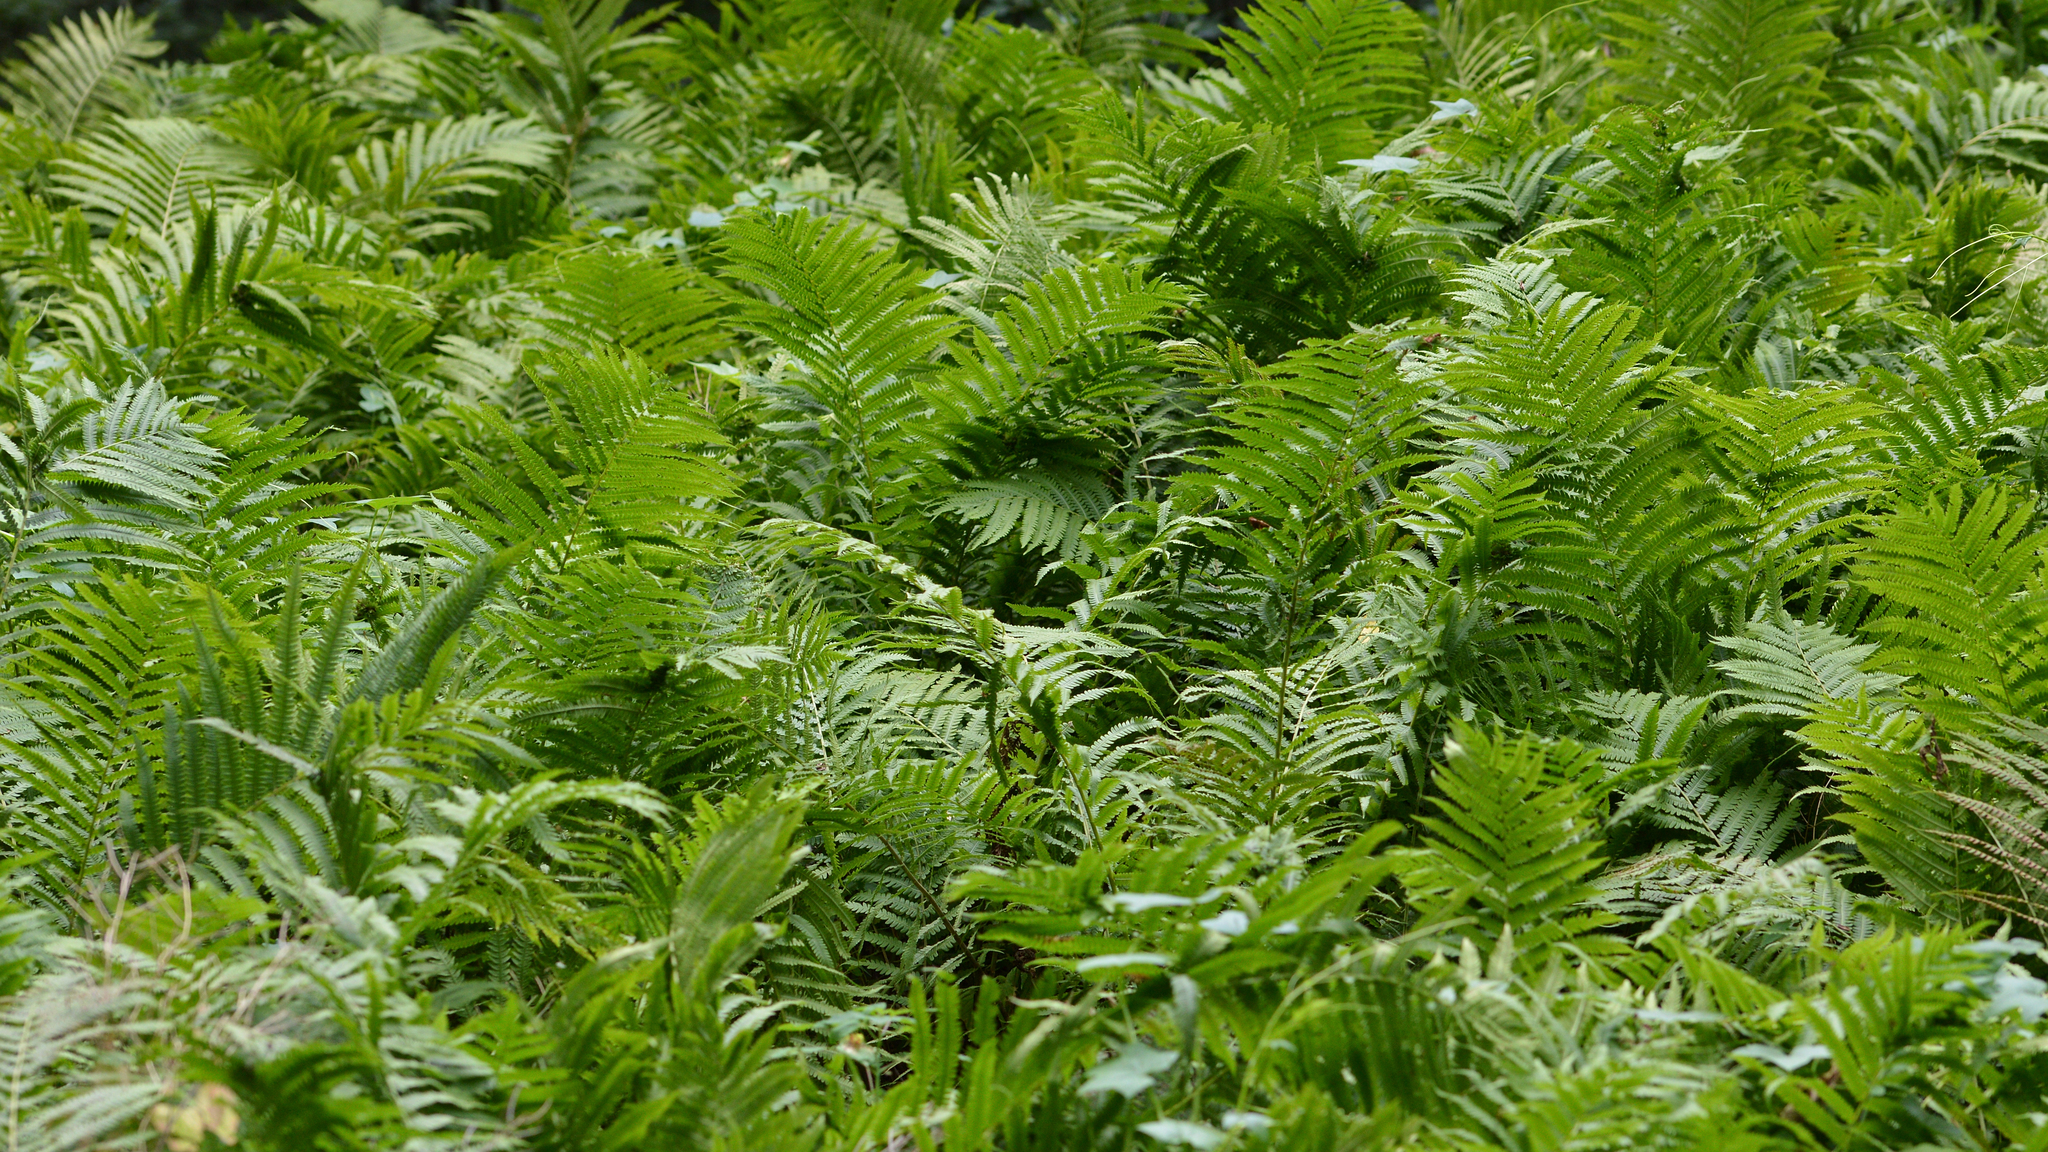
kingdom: Plantae
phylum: Tracheophyta
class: Polypodiopsida
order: Polypodiales
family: Onocleaceae
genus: Matteuccia
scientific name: Matteuccia struthiopteris
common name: Ostrich fern
